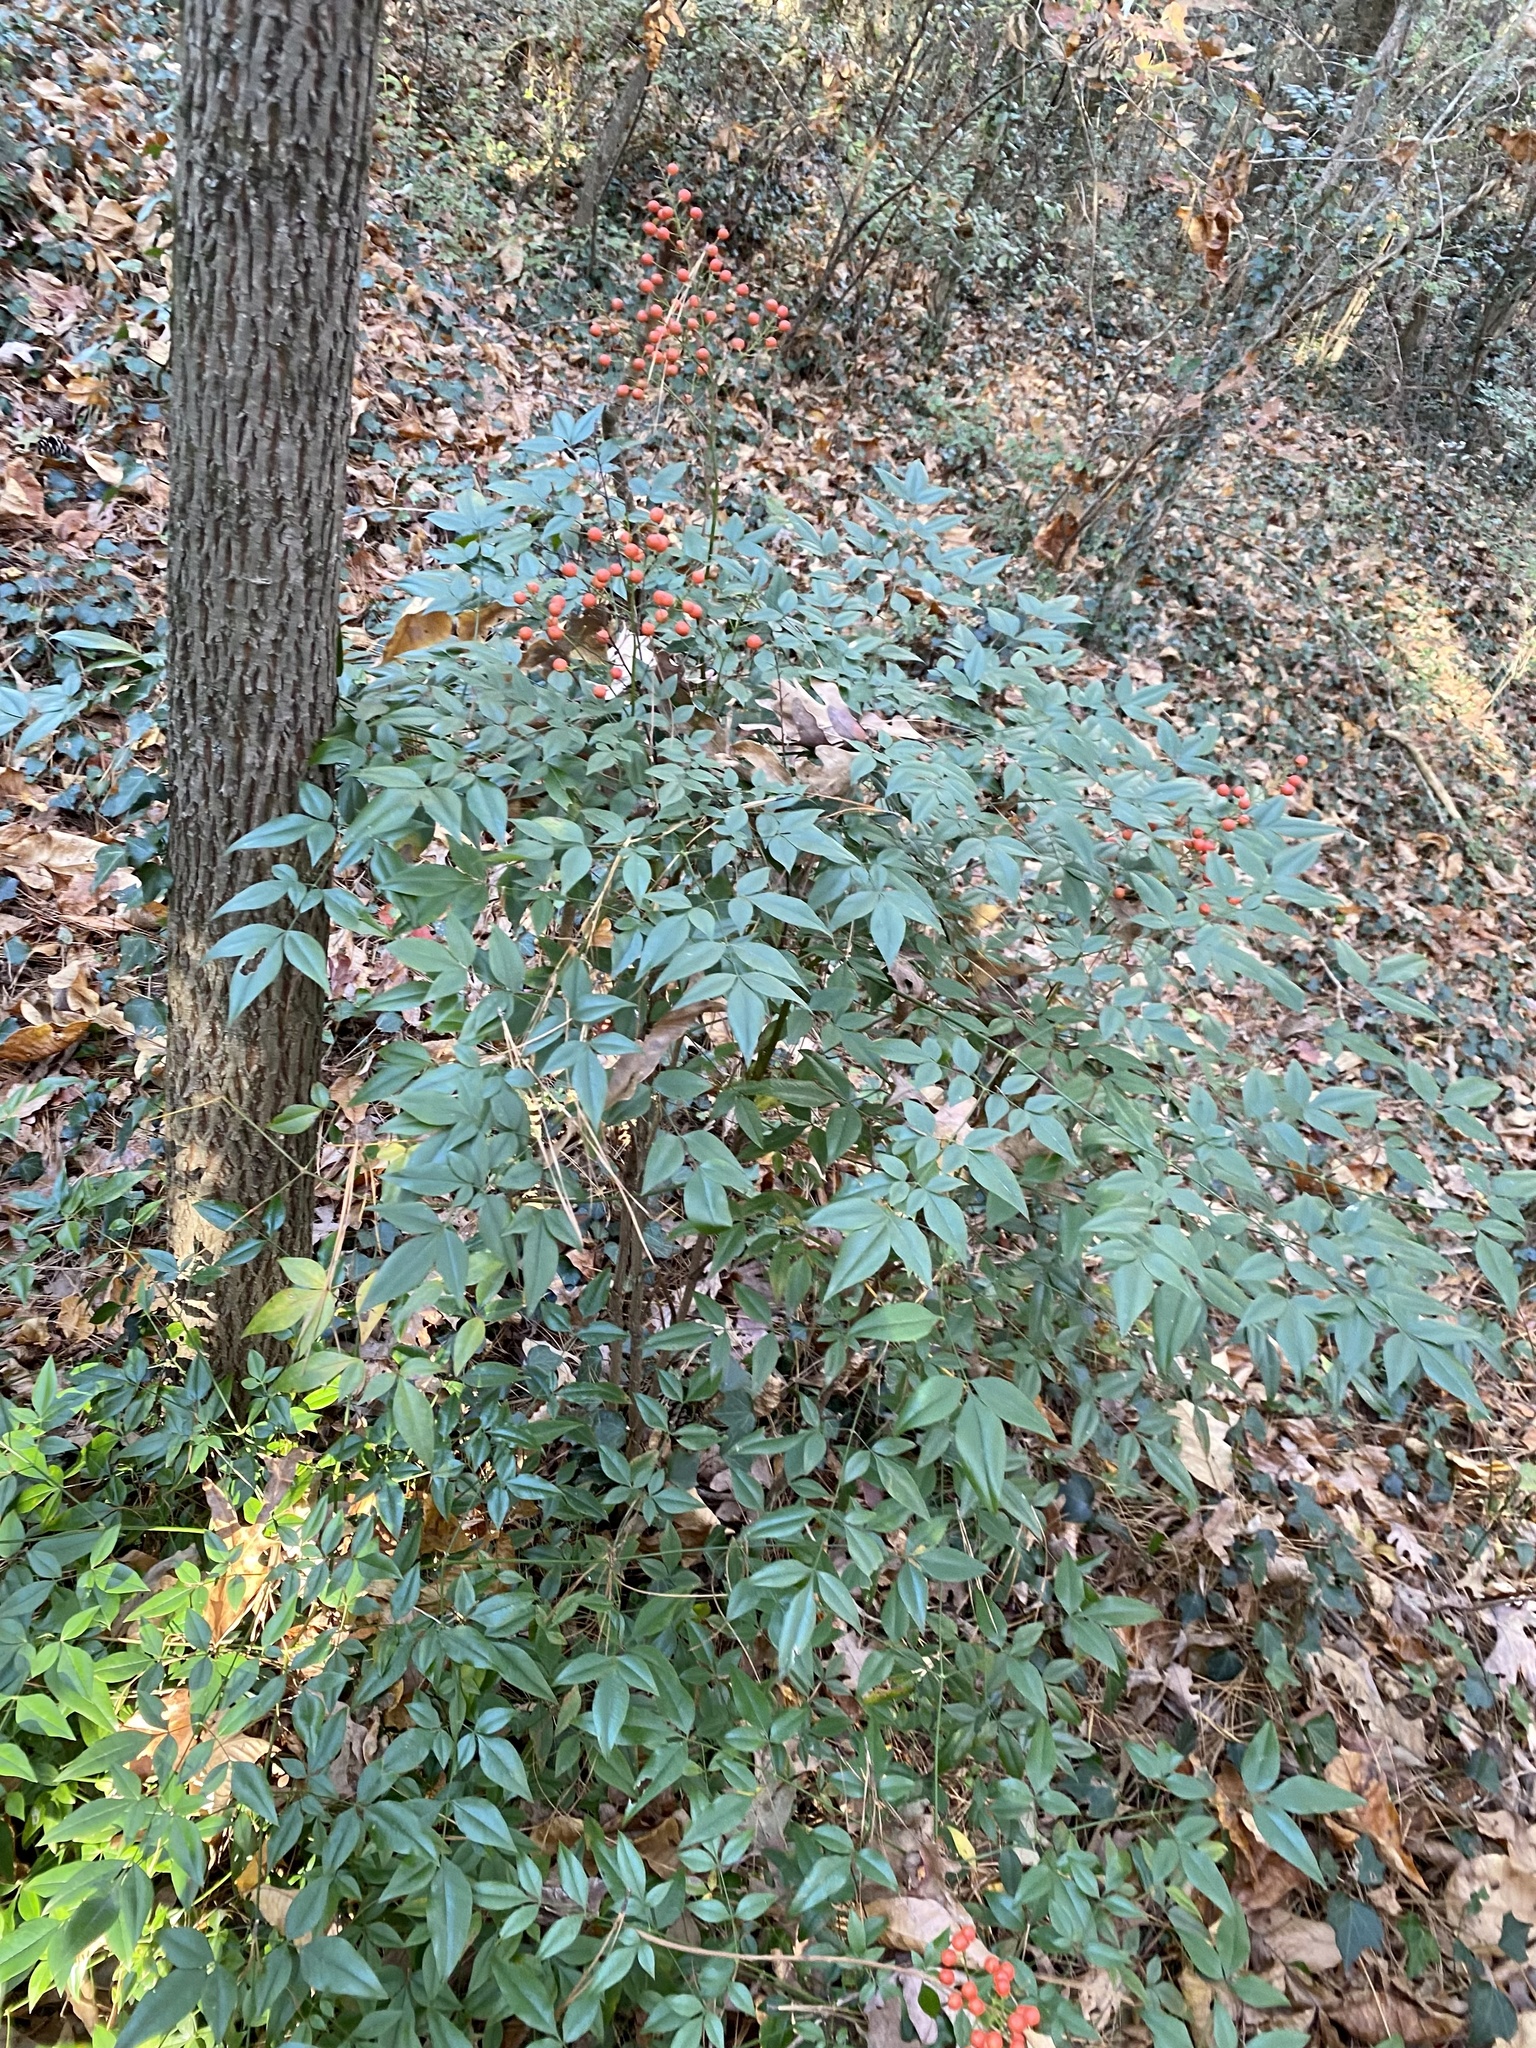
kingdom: Plantae
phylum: Tracheophyta
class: Magnoliopsida
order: Ranunculales
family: Berberidaceae
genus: Nandina
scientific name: Nandina domestica
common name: Sacred bamboo
